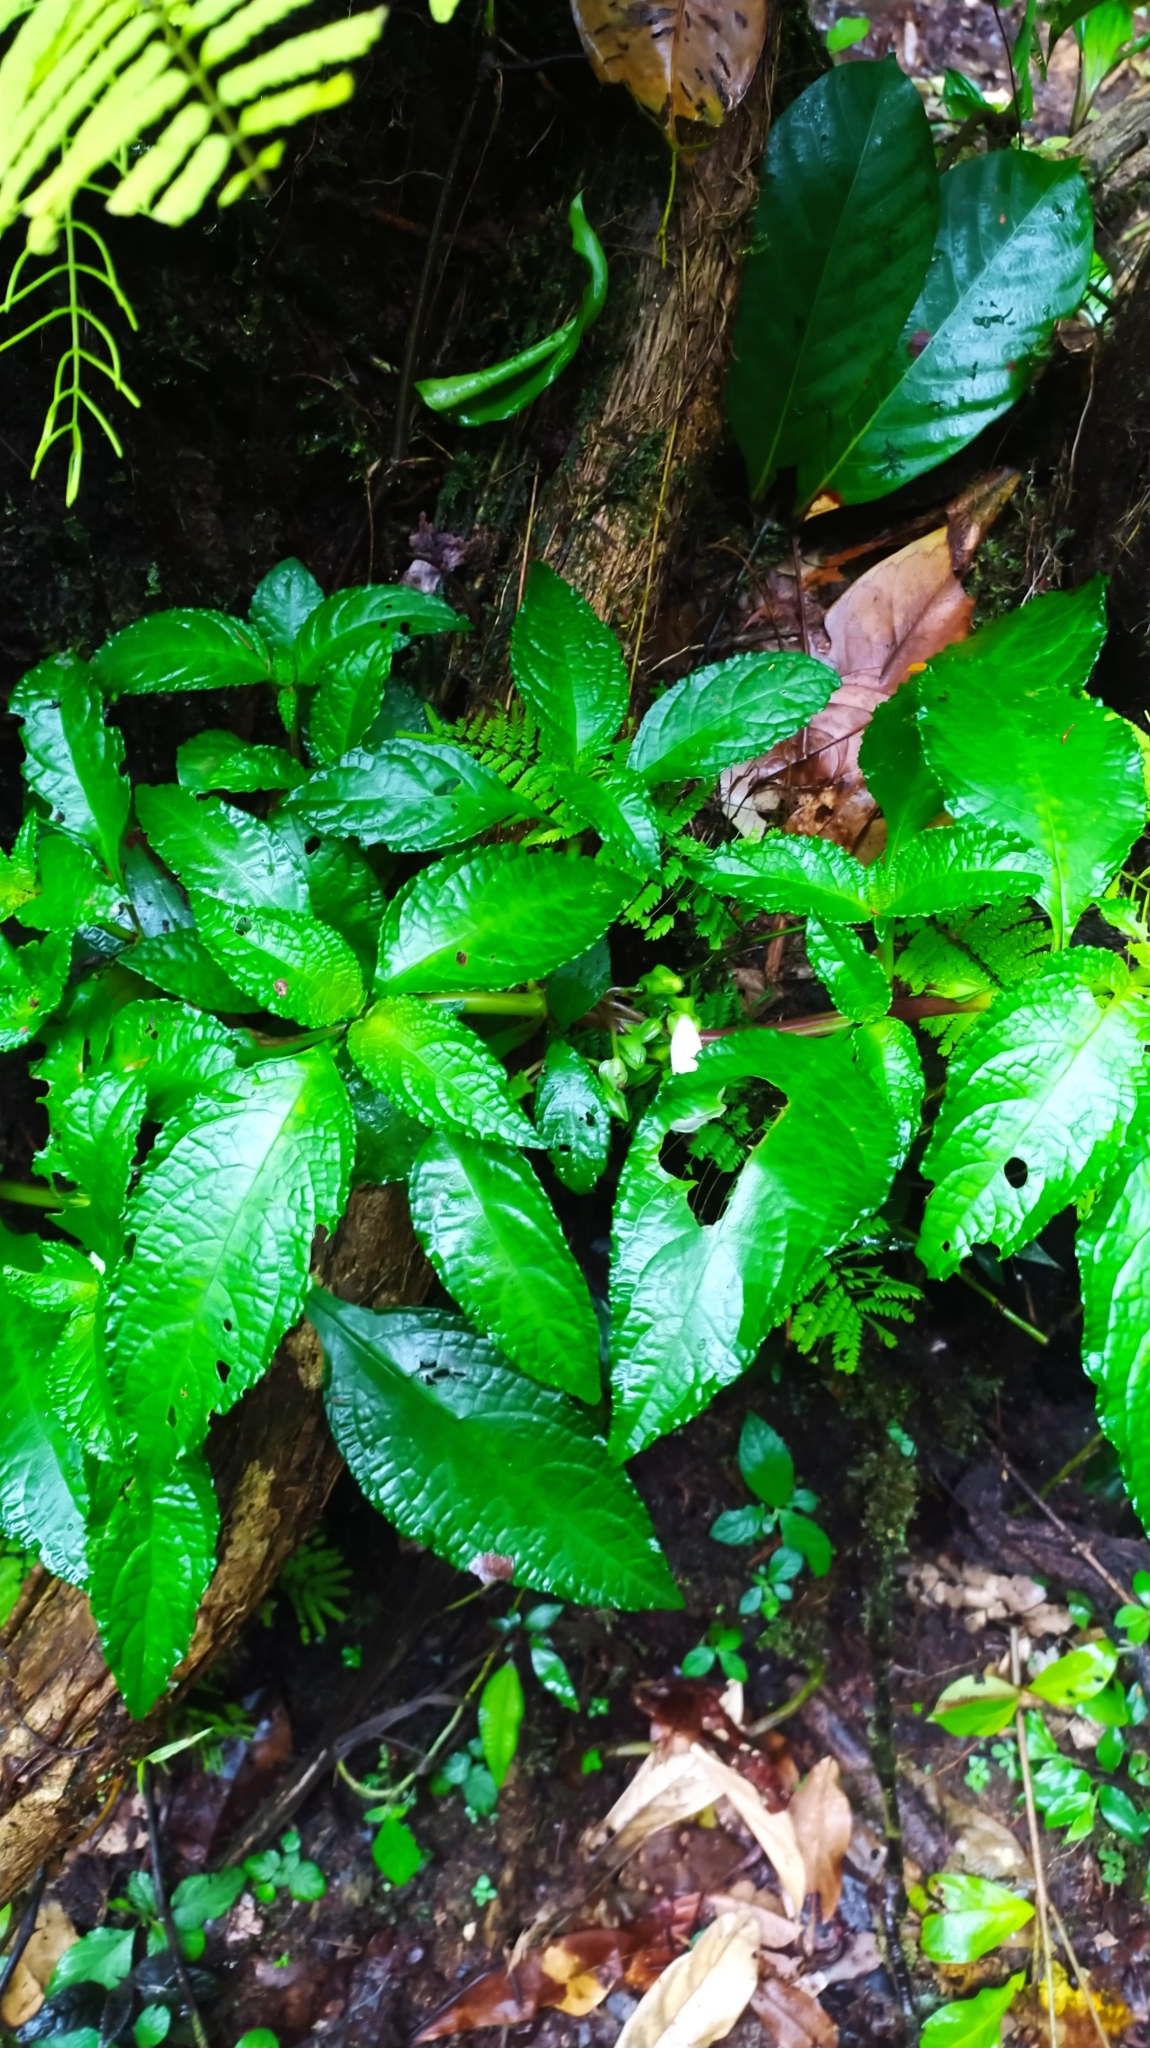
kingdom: Plantae
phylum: Tracheophyta
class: Magnoliopsida
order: Lamiales
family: Gesneriaceae
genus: Nautilocalyx
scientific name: Nautilocalyx mimuloides
